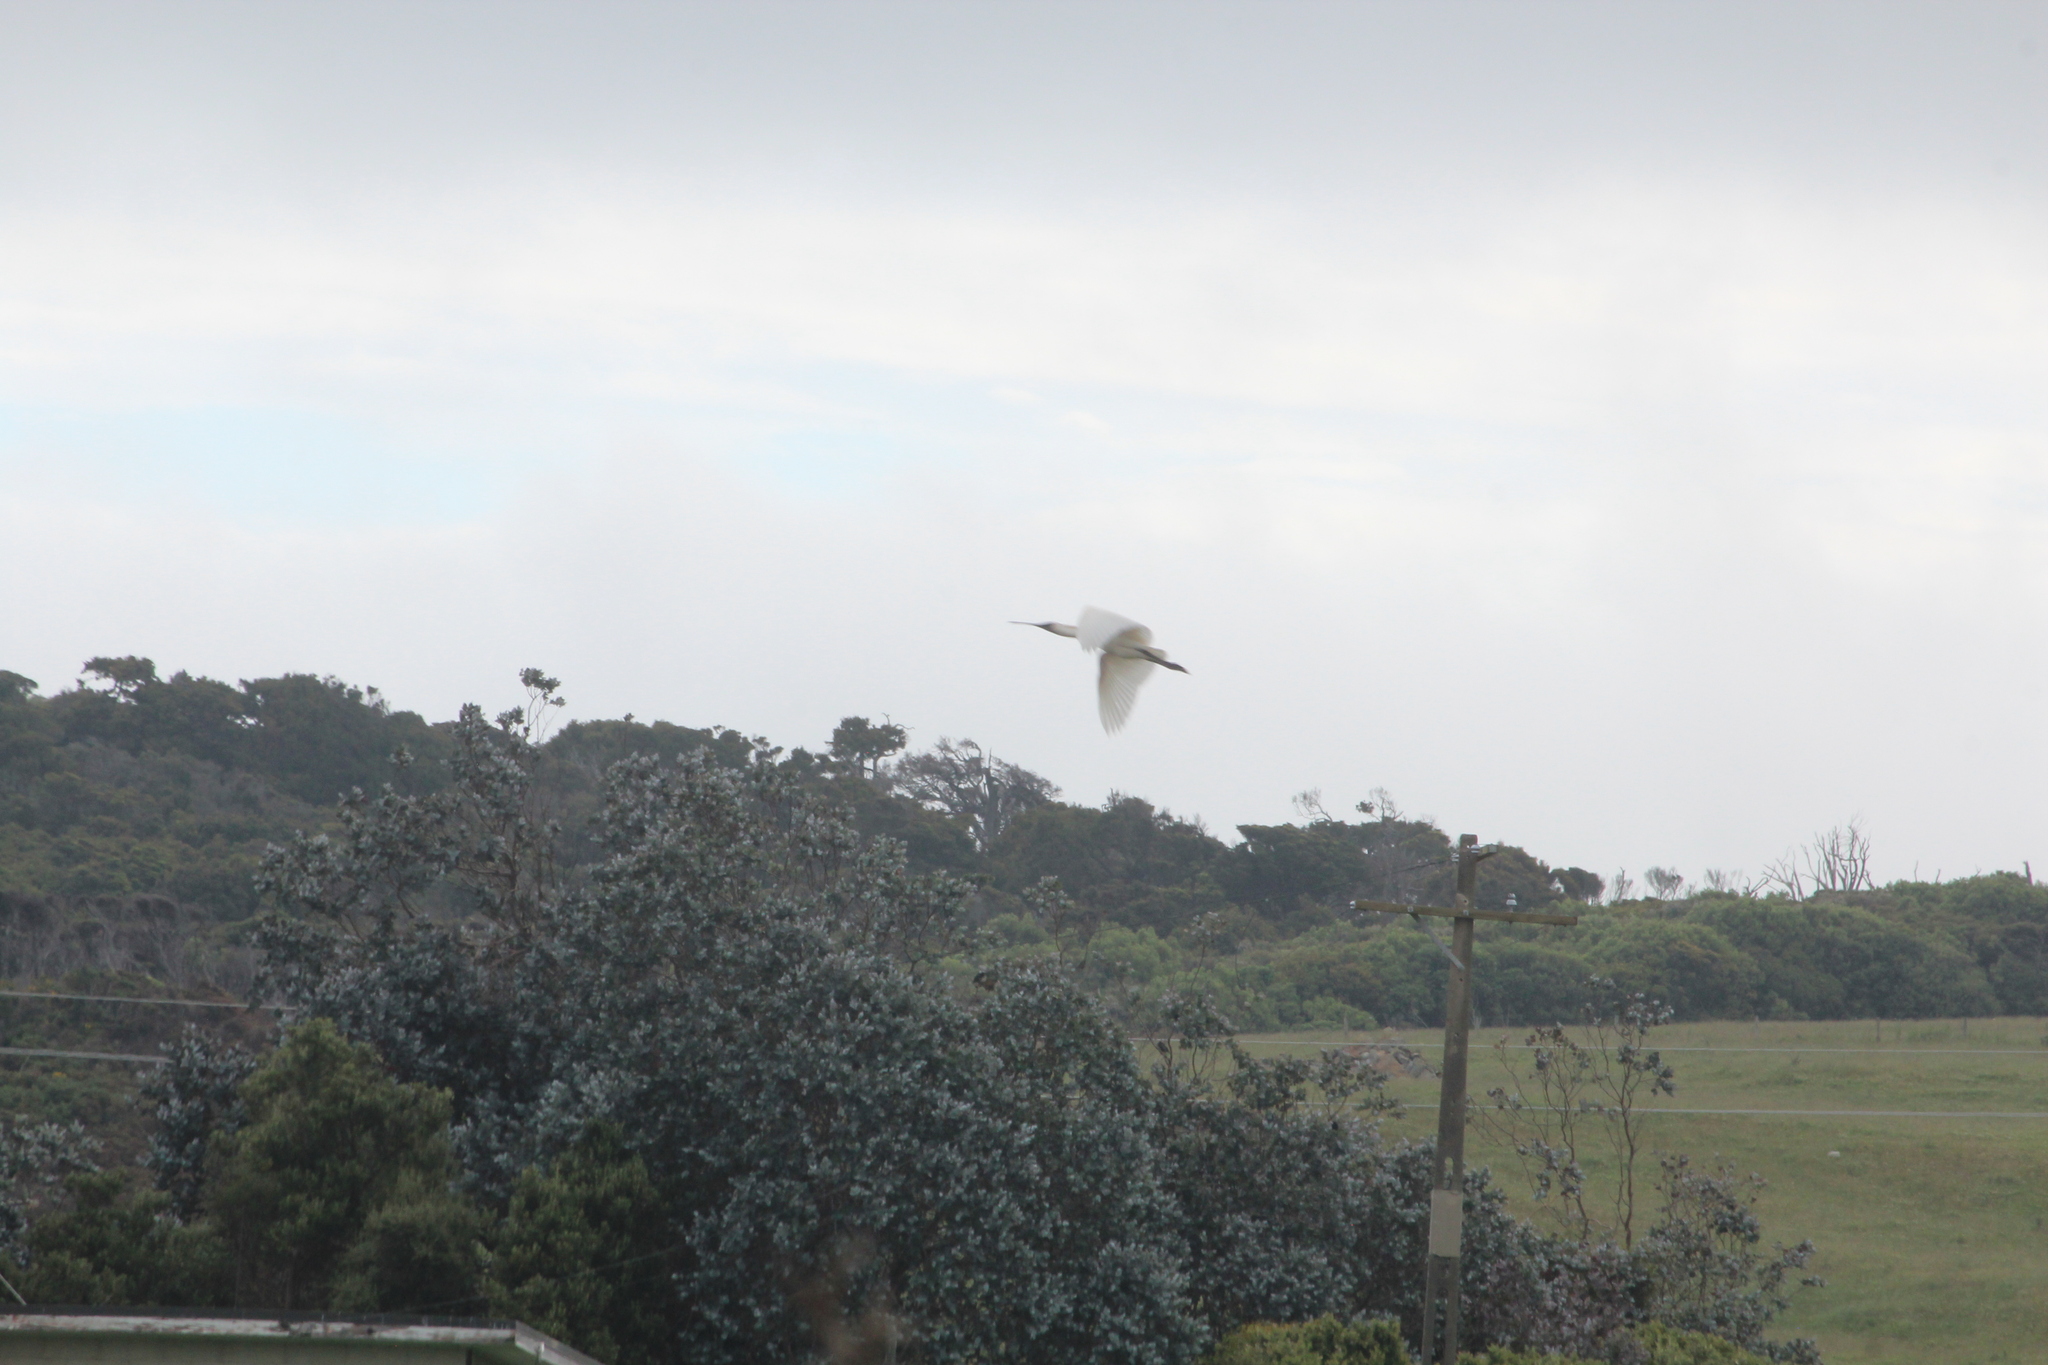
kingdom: Animalia
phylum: Chordata
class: Aves
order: Pelecaniformes
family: Threskiornithidae
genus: Platalea
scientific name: Platalea regia
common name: Royal spoonbill
